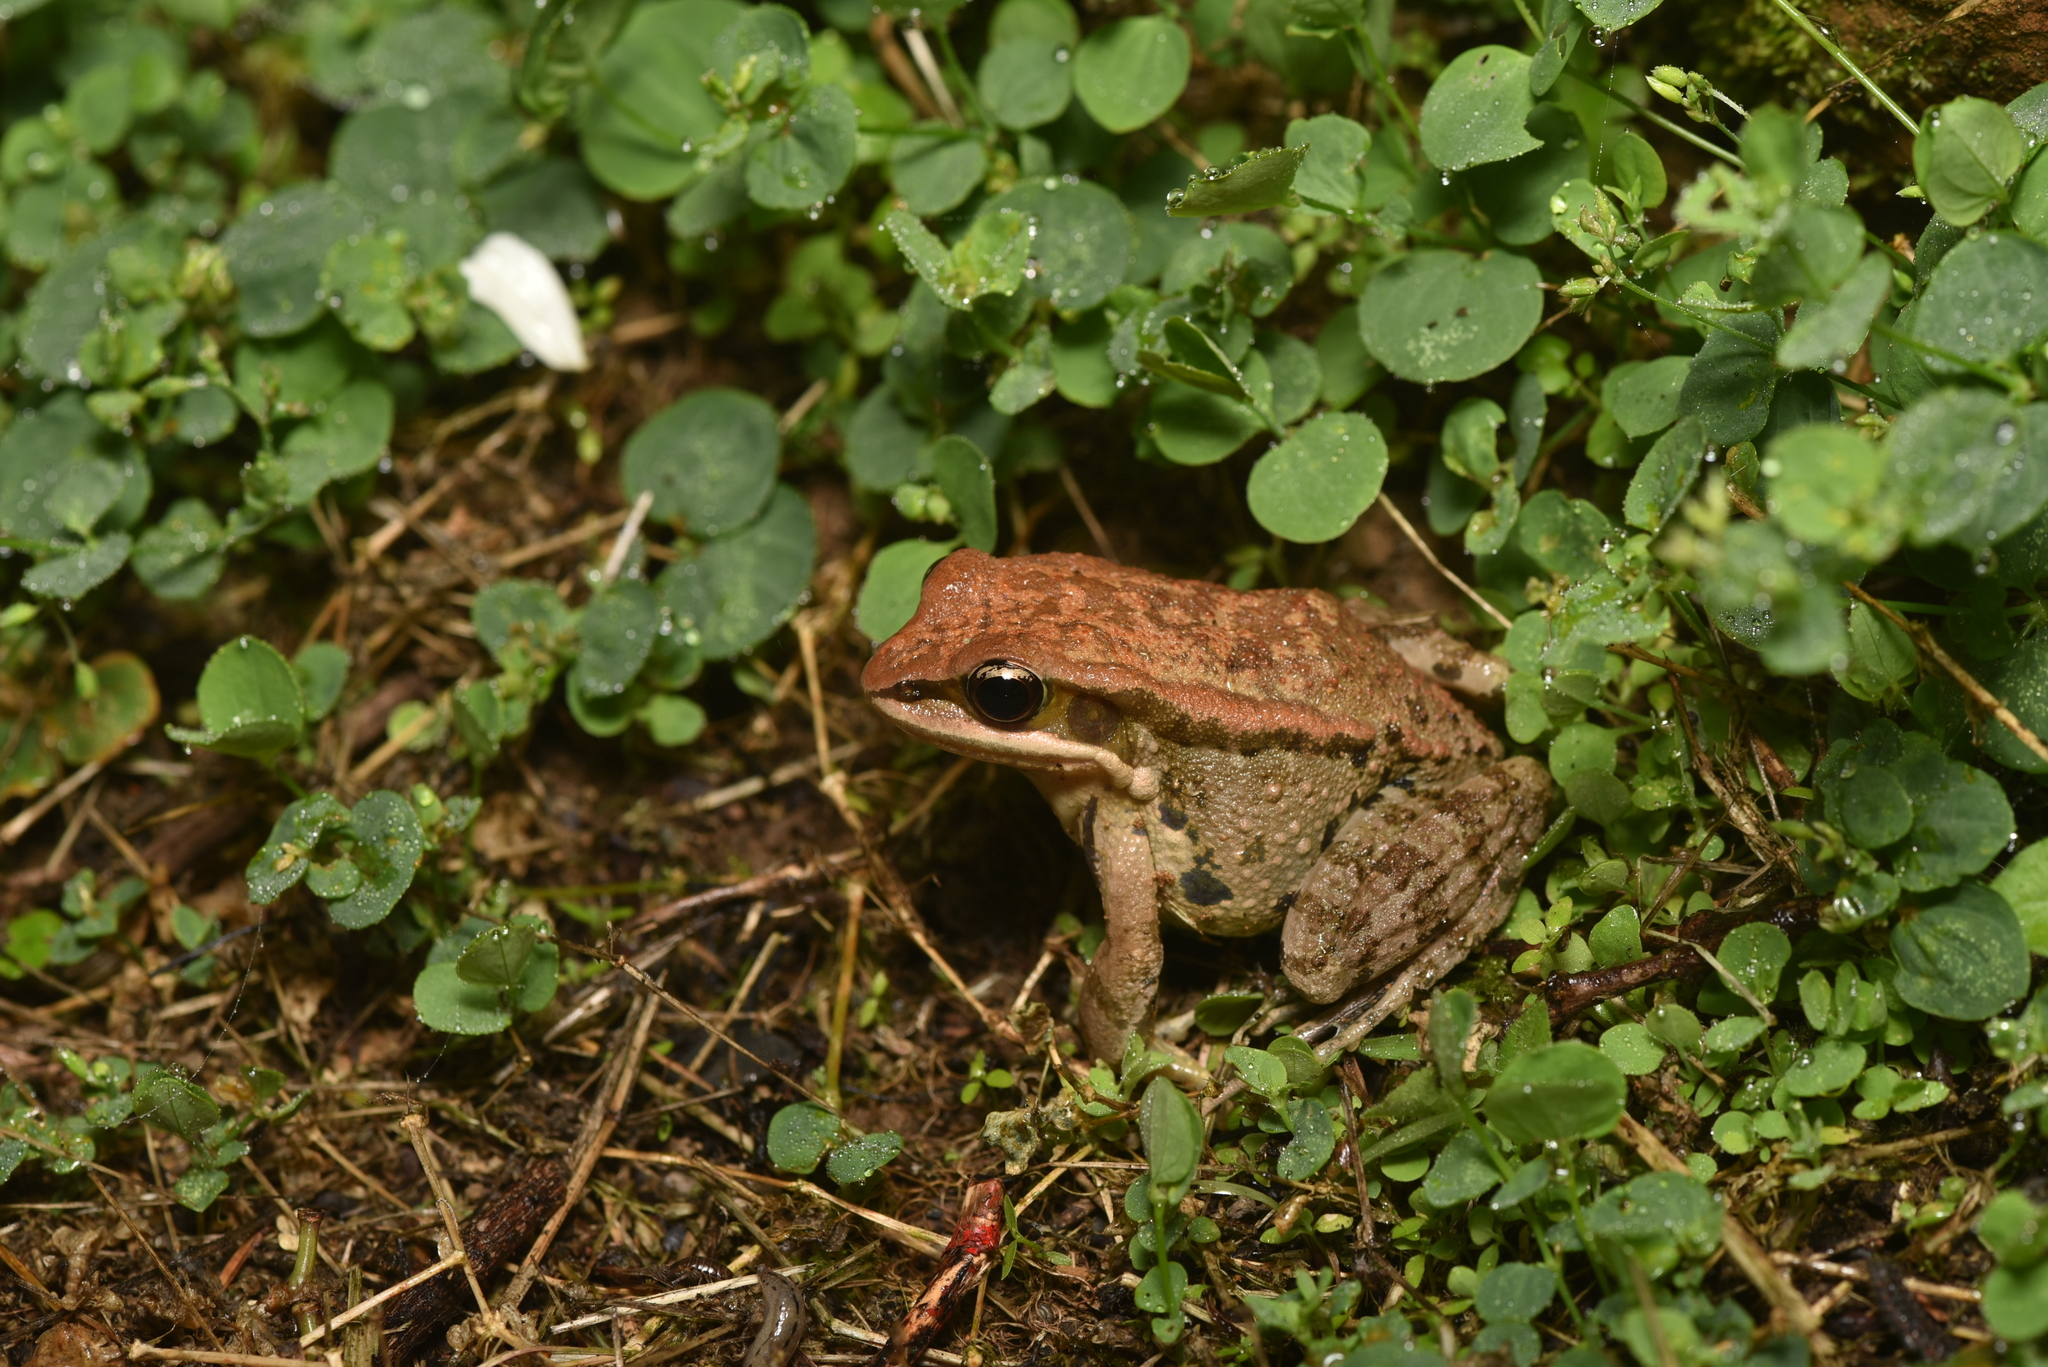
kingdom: Animalia
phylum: Chordata
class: Amphibia
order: Anura
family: Ranidae
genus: Hylarana
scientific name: Hylarana latouchii
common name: Broad-folded frog
